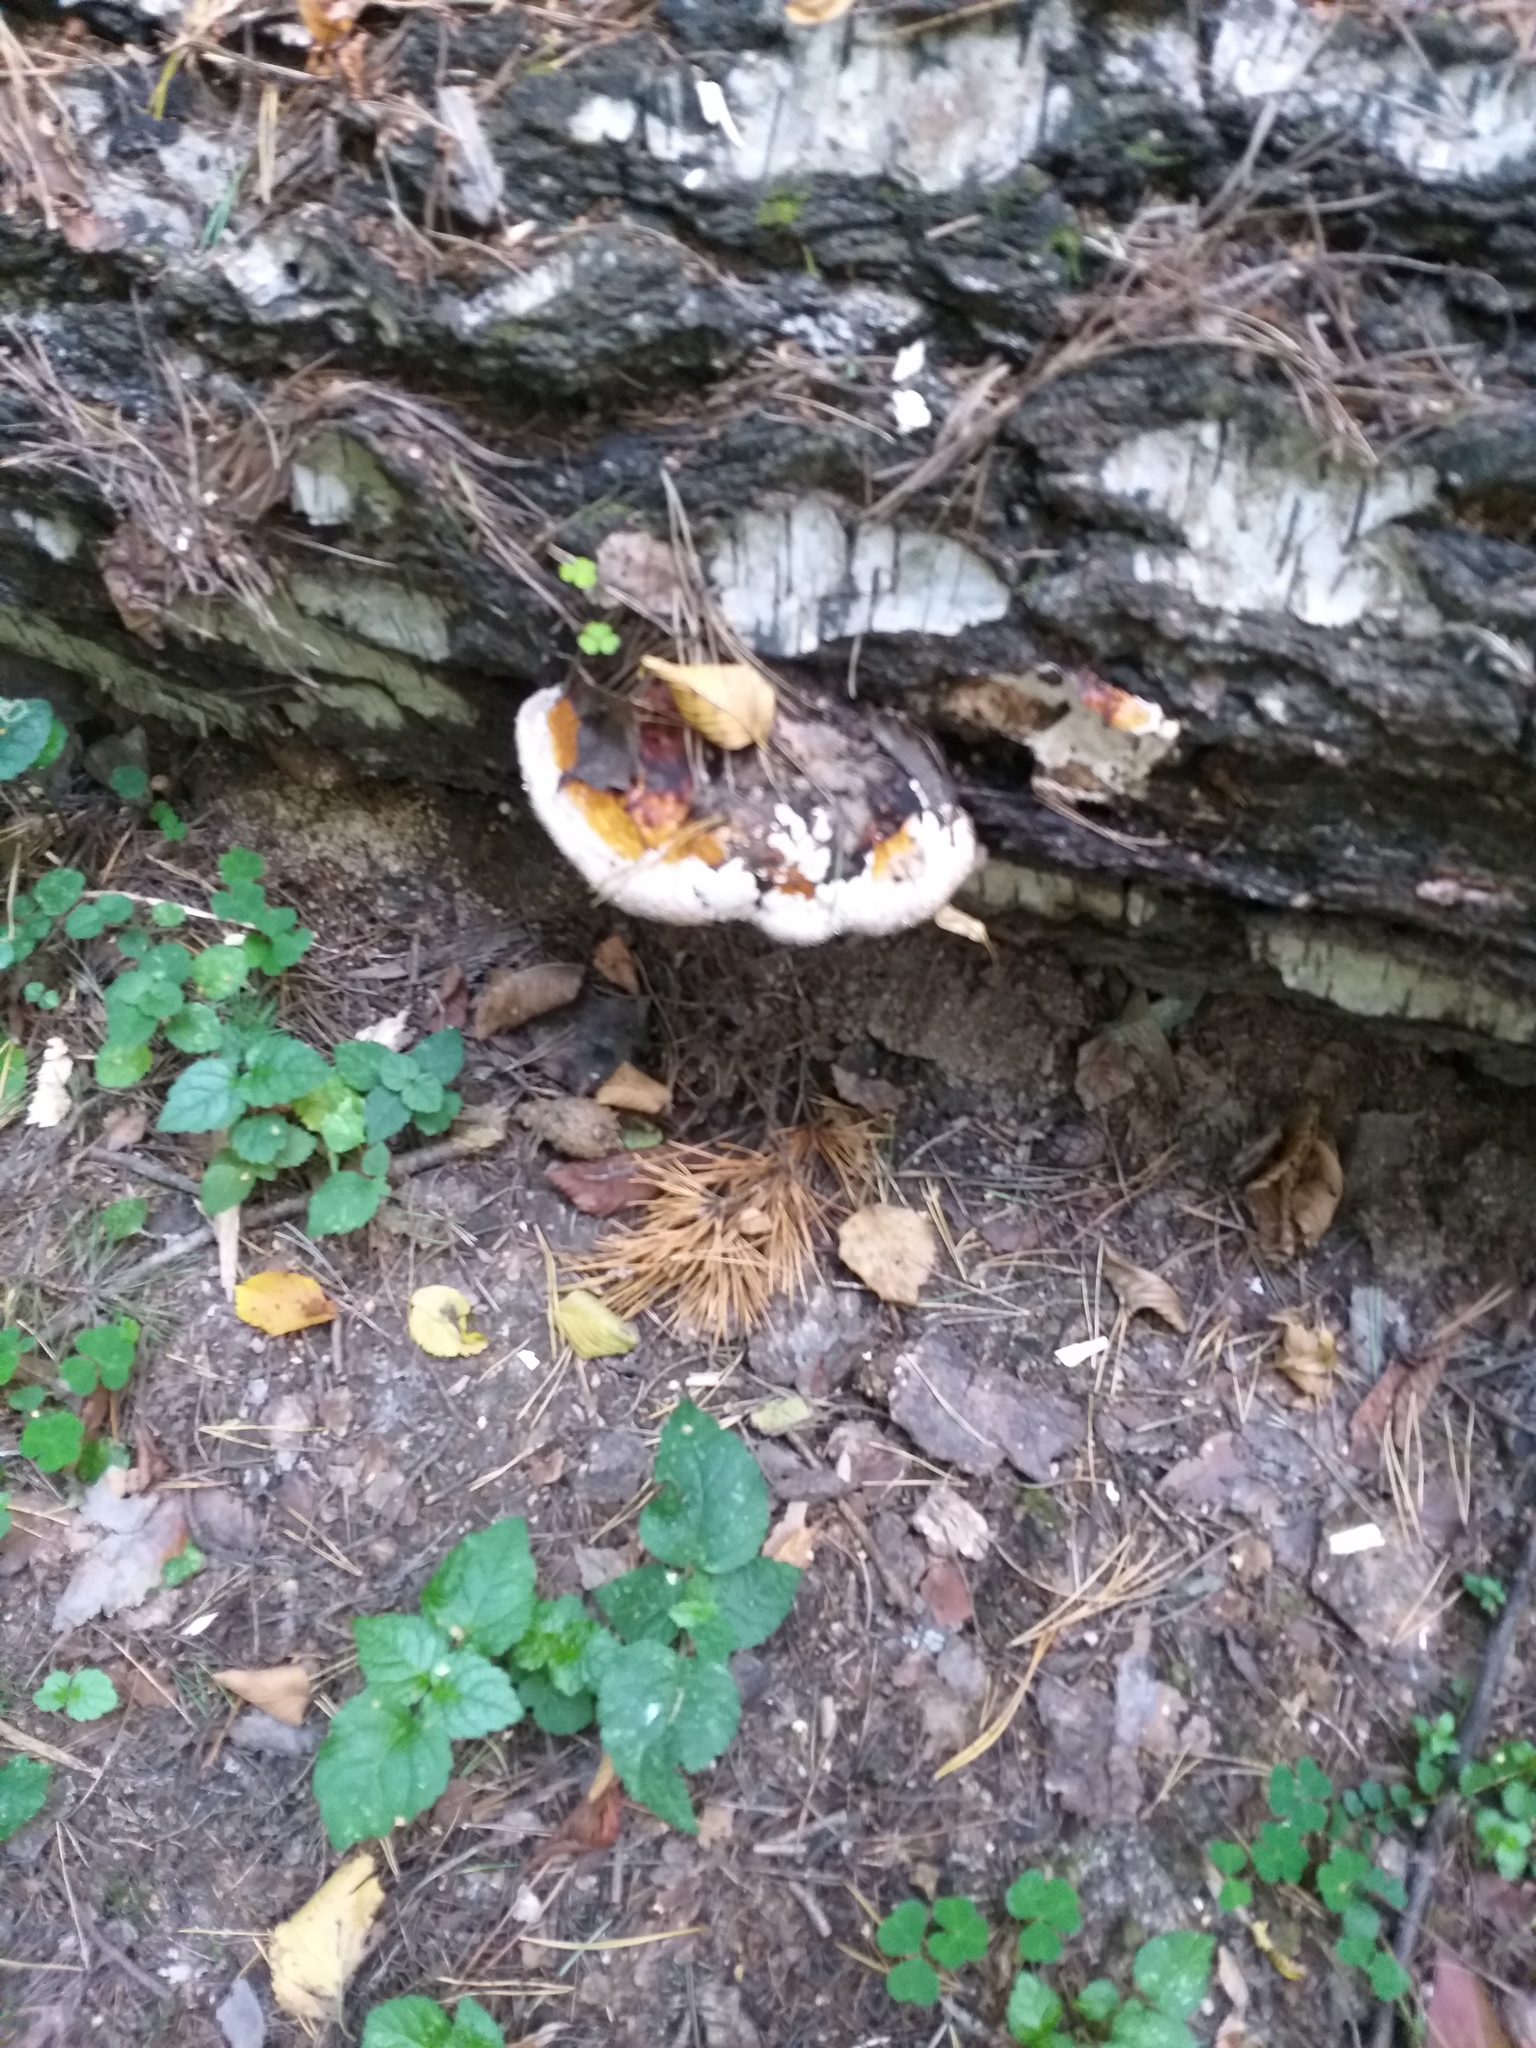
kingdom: Fungi
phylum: Basidiomycota
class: Agaricomycetes
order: Polyporales
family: Fomitopsidaceae
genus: Fomitopsis
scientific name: Fomitopsis pinicola
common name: Red-belted bracket
